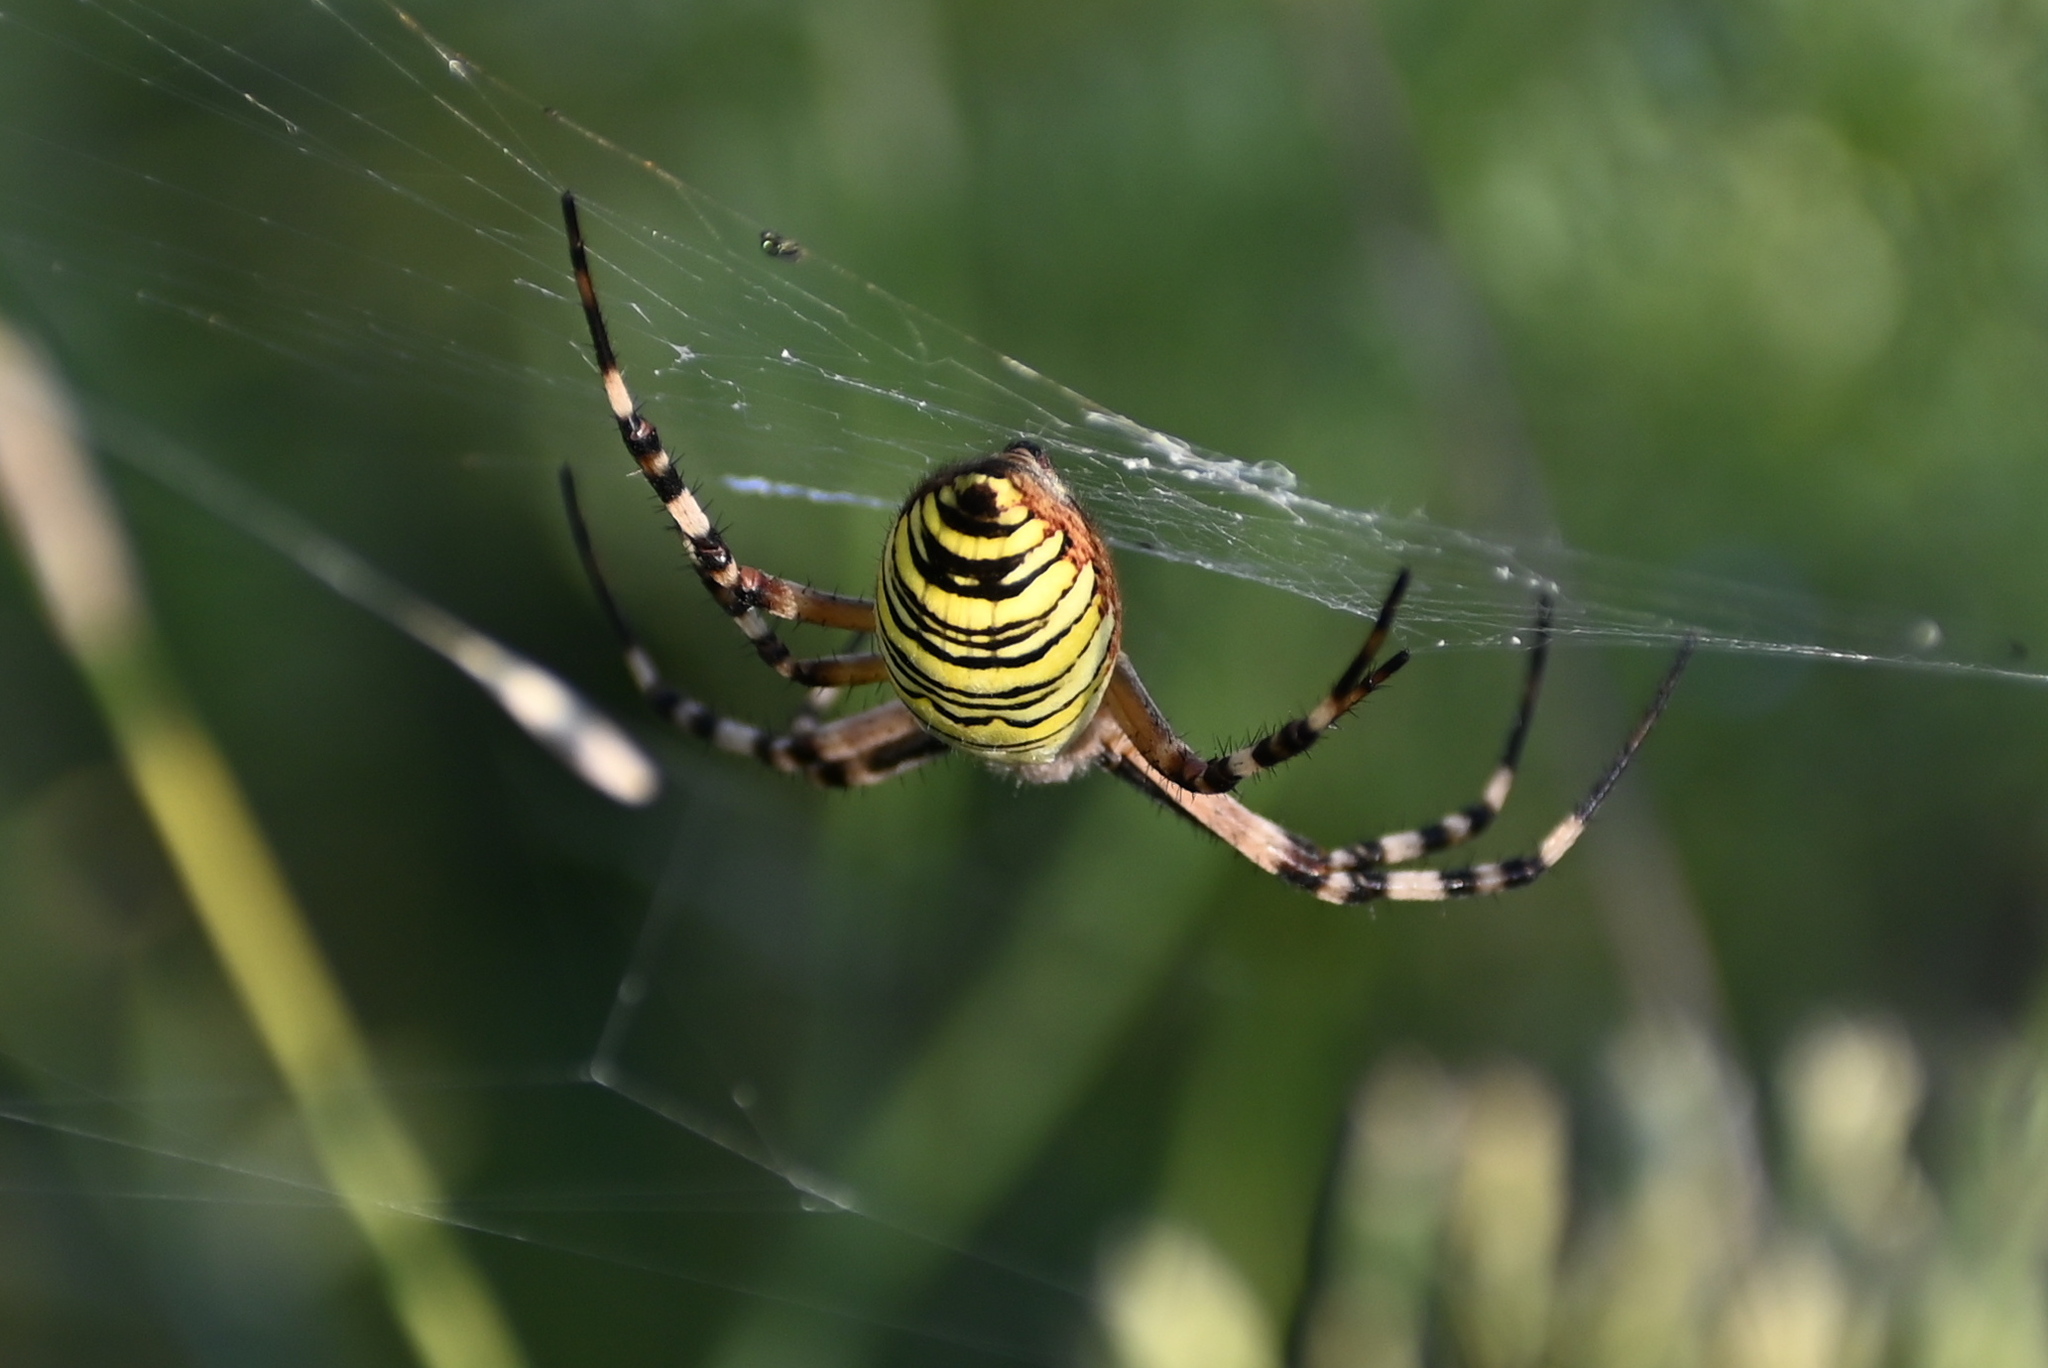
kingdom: Animalia
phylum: Arthropoda
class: Arachnida
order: Araneae
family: Araneidae
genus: Argiope
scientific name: Argiope bruennichi
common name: Wasp spider
